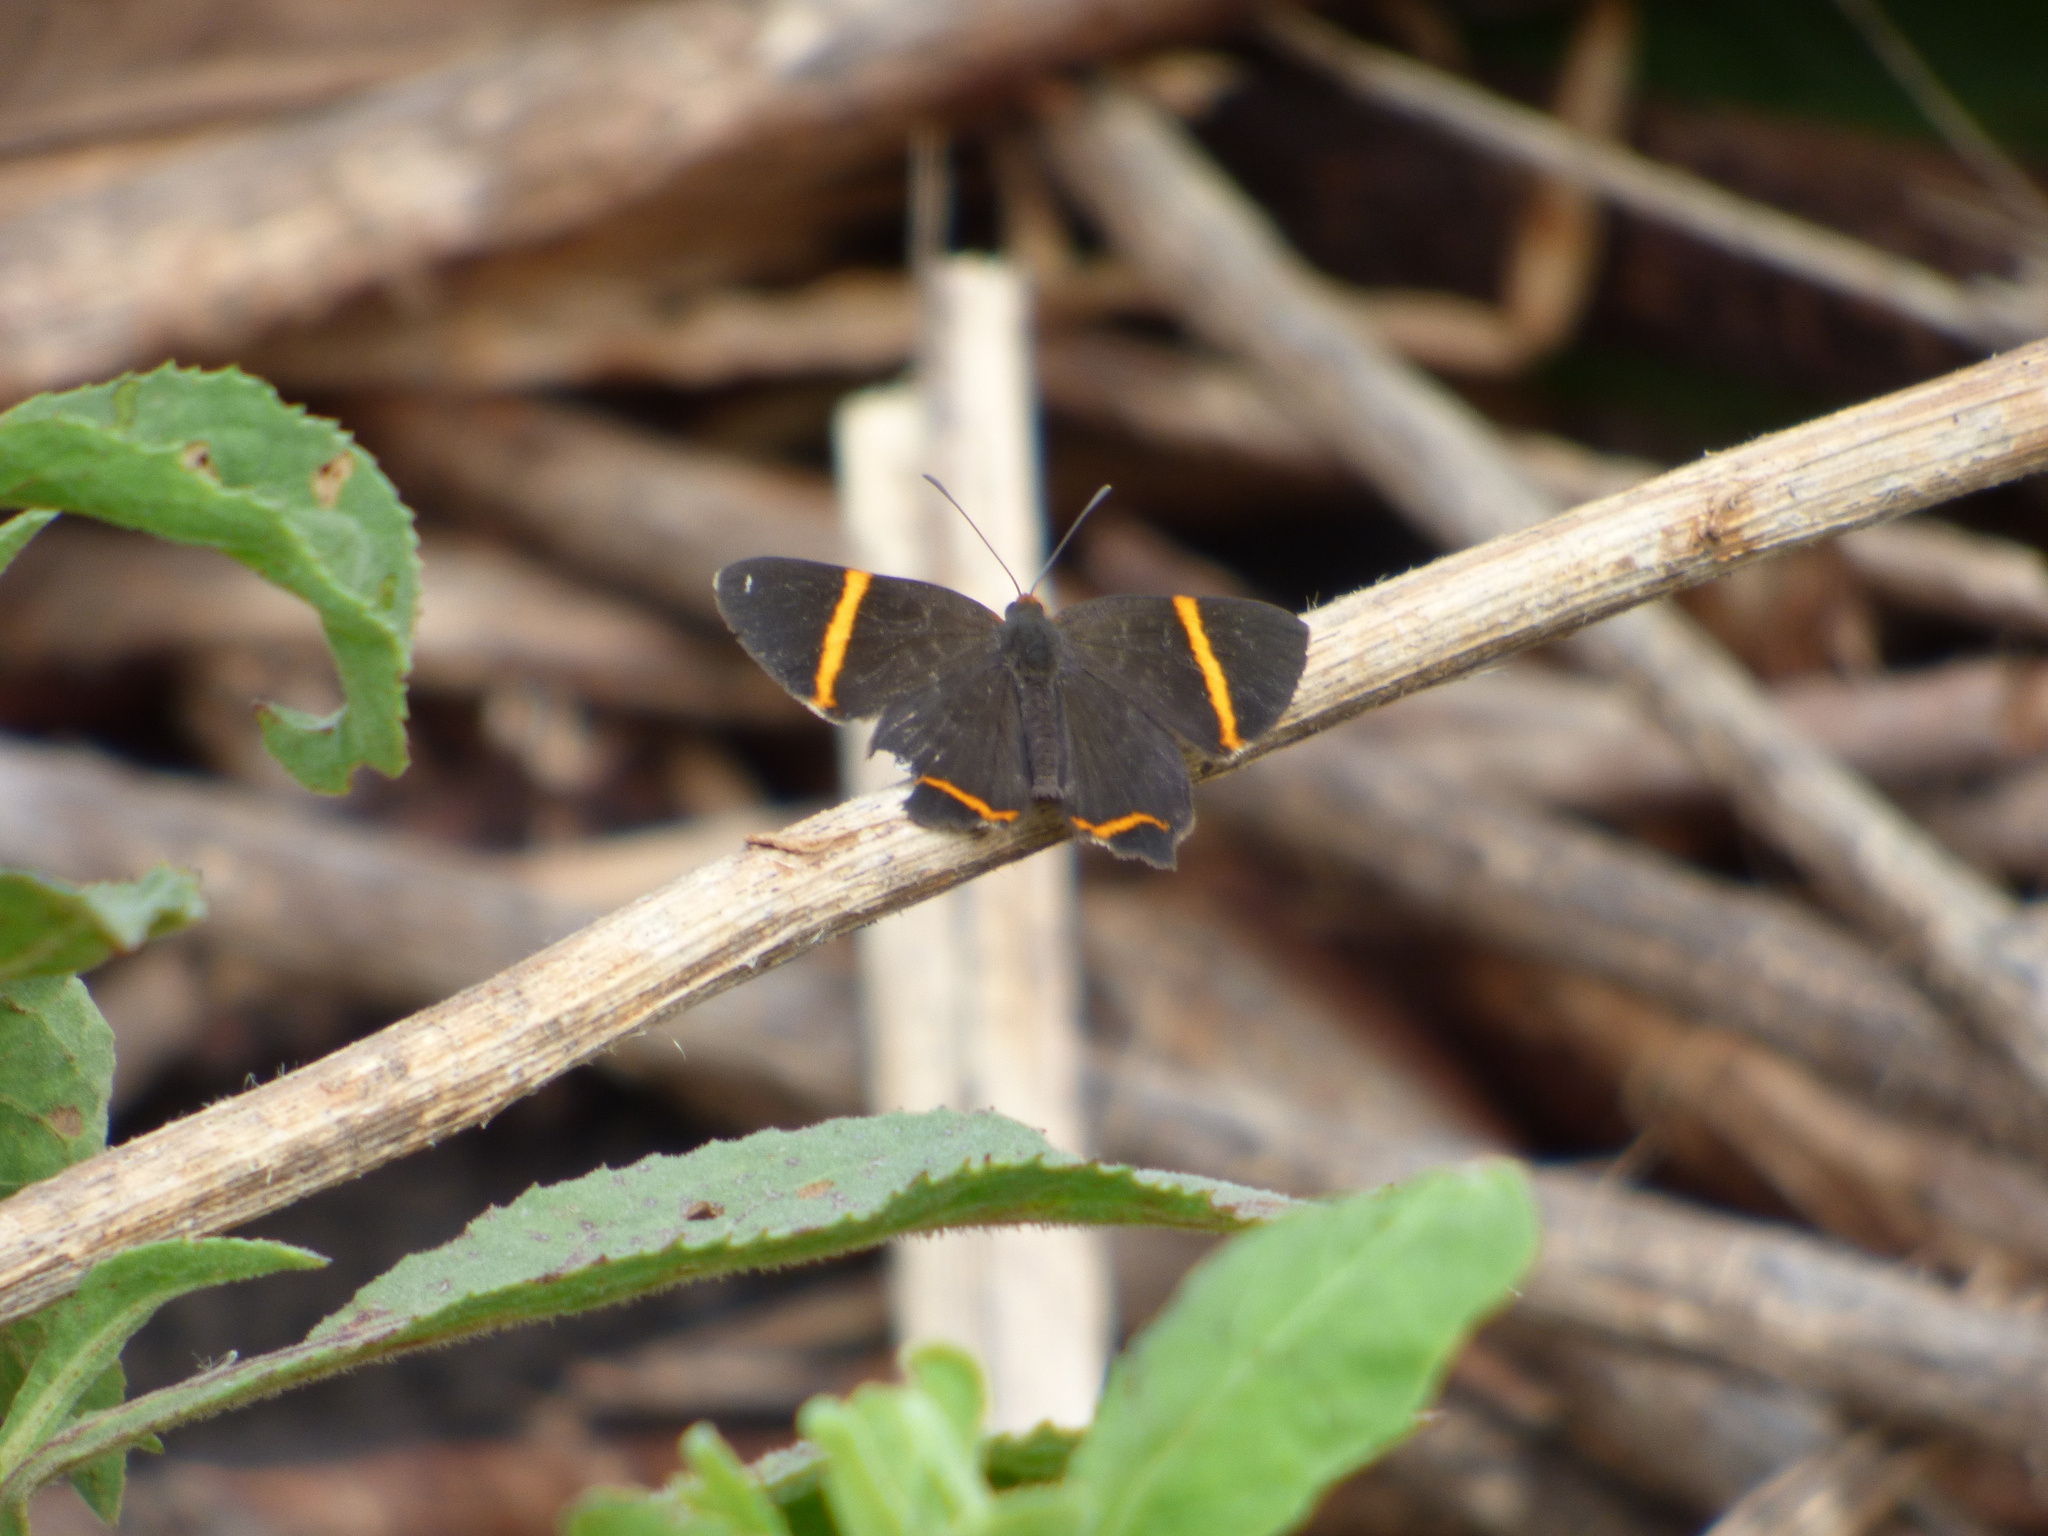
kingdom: Animalia
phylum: Arthropoda
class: Insecta
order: Lepidoptera
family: Riodinidae
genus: Riodina
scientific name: Riodina lysippoides
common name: Little dancer metalmark
